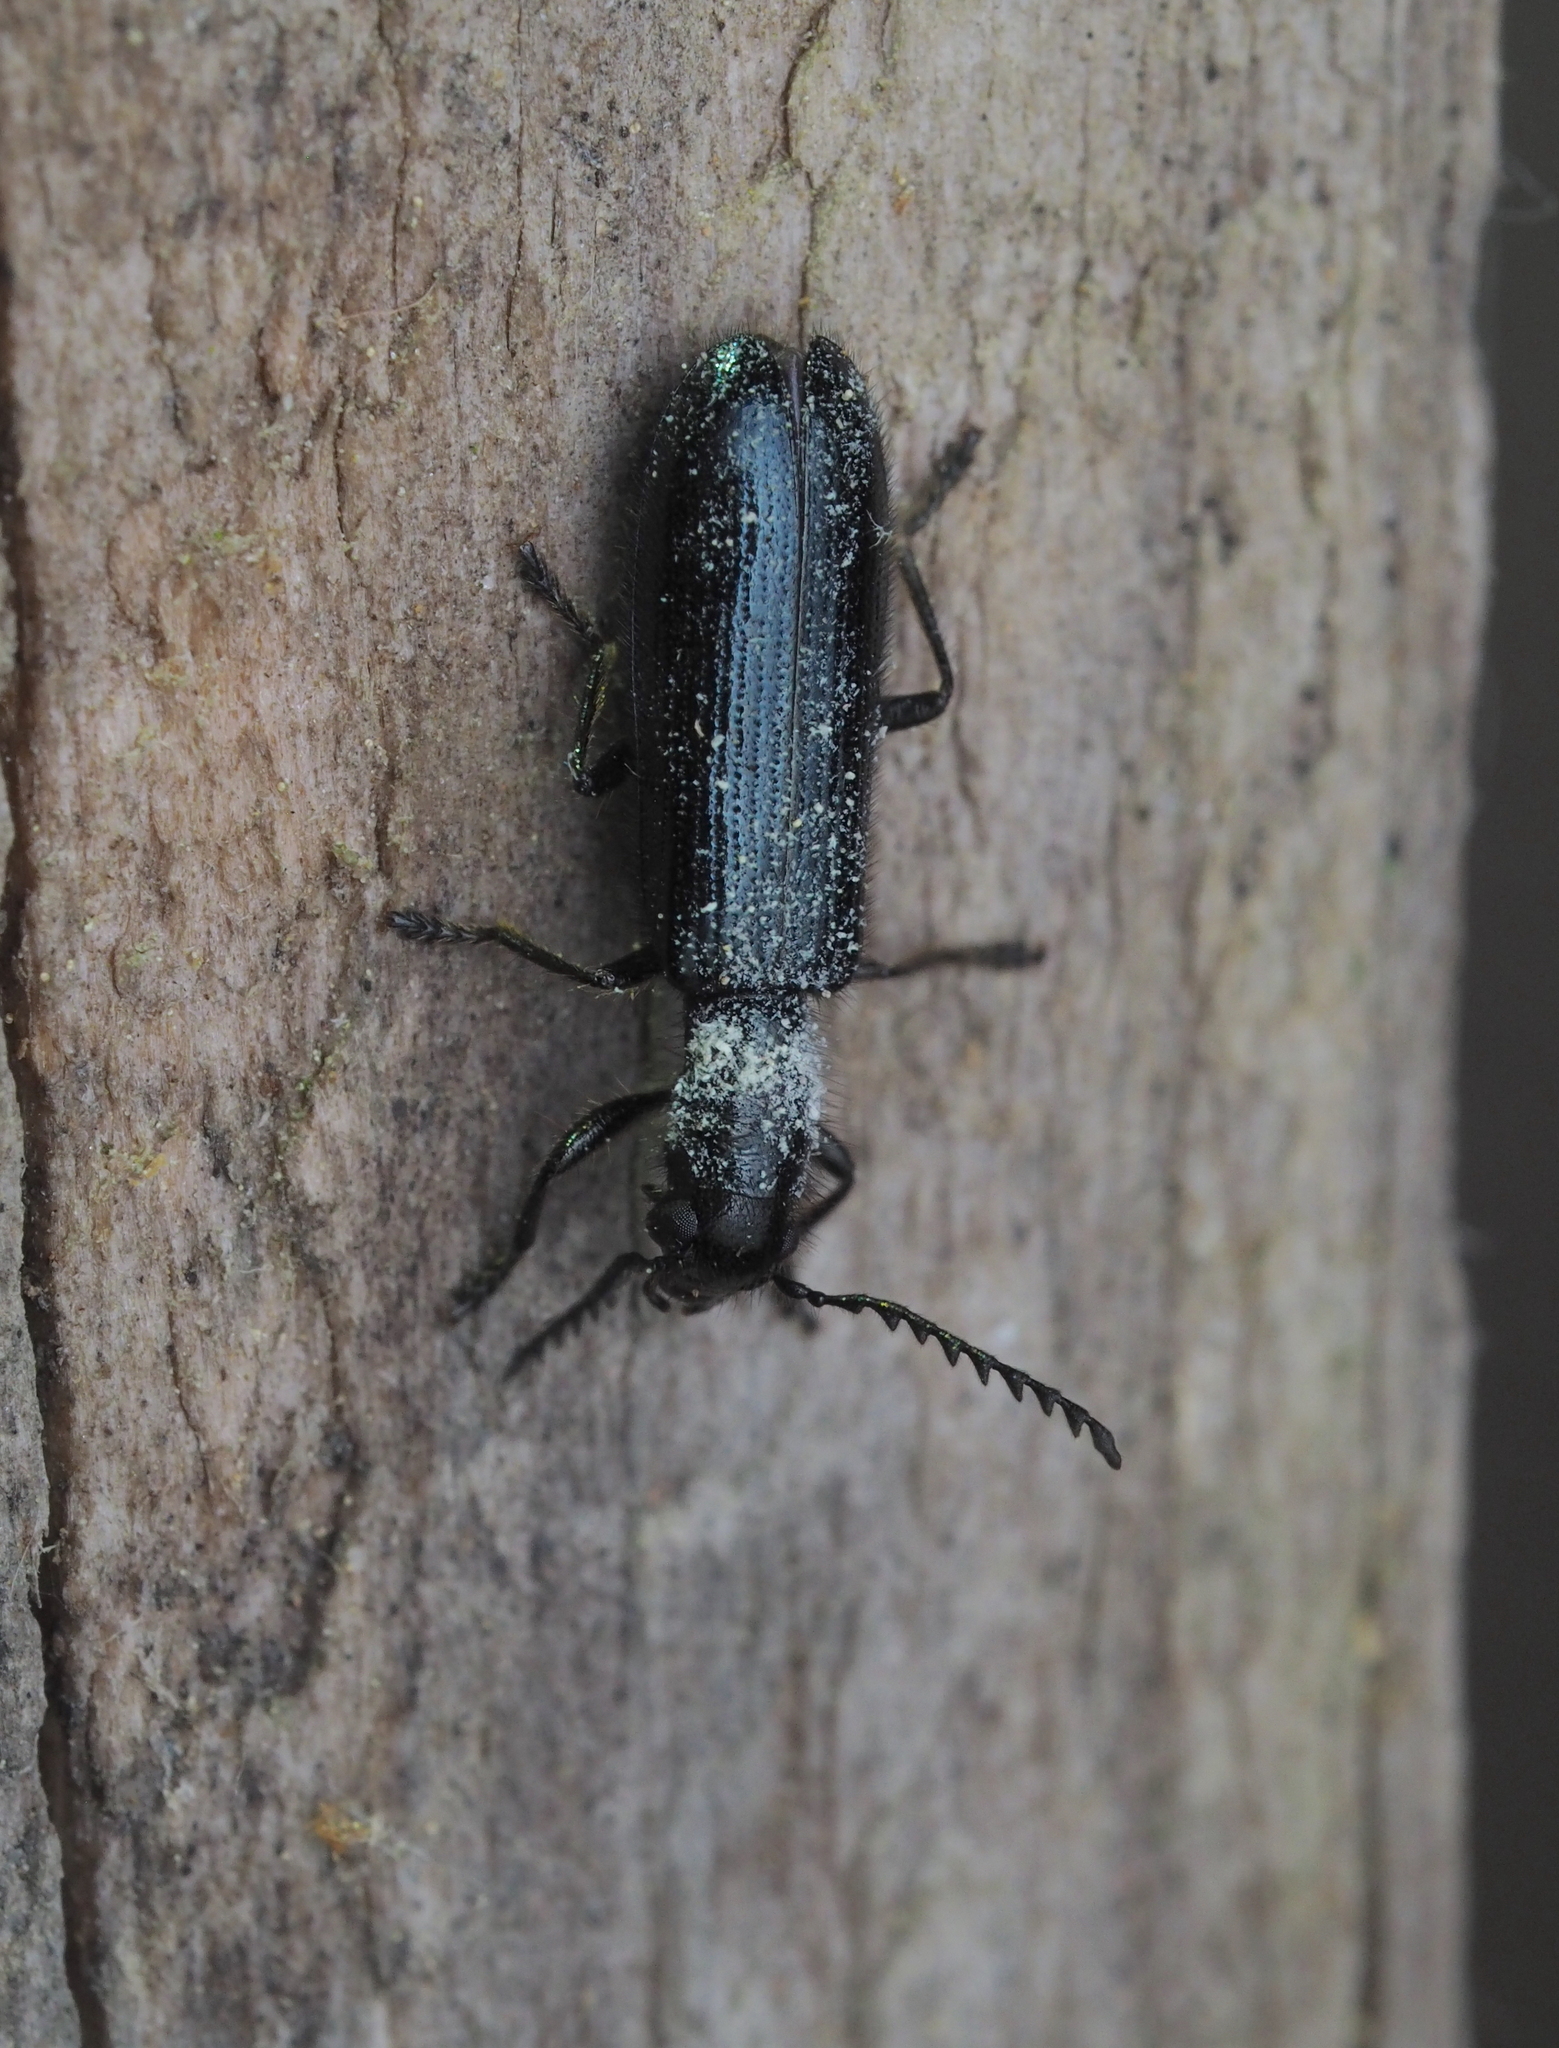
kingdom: Animalia
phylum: Arthropoda
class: Insecta
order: Coleoptera
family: Cleridae
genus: Tillus
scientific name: Tillus elongatus
